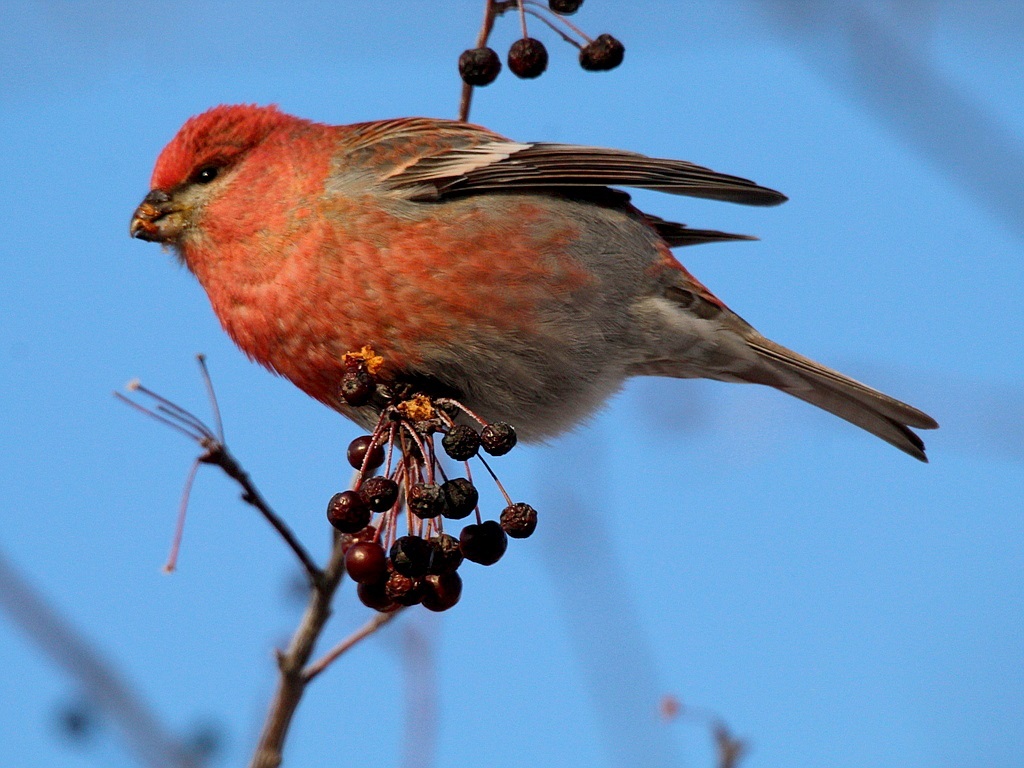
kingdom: Animalia
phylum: Chordata
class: Aves
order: Passeriformes
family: Fringillidae
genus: Pinicola
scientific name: Pinicola enucleator
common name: Pine grosbeak
